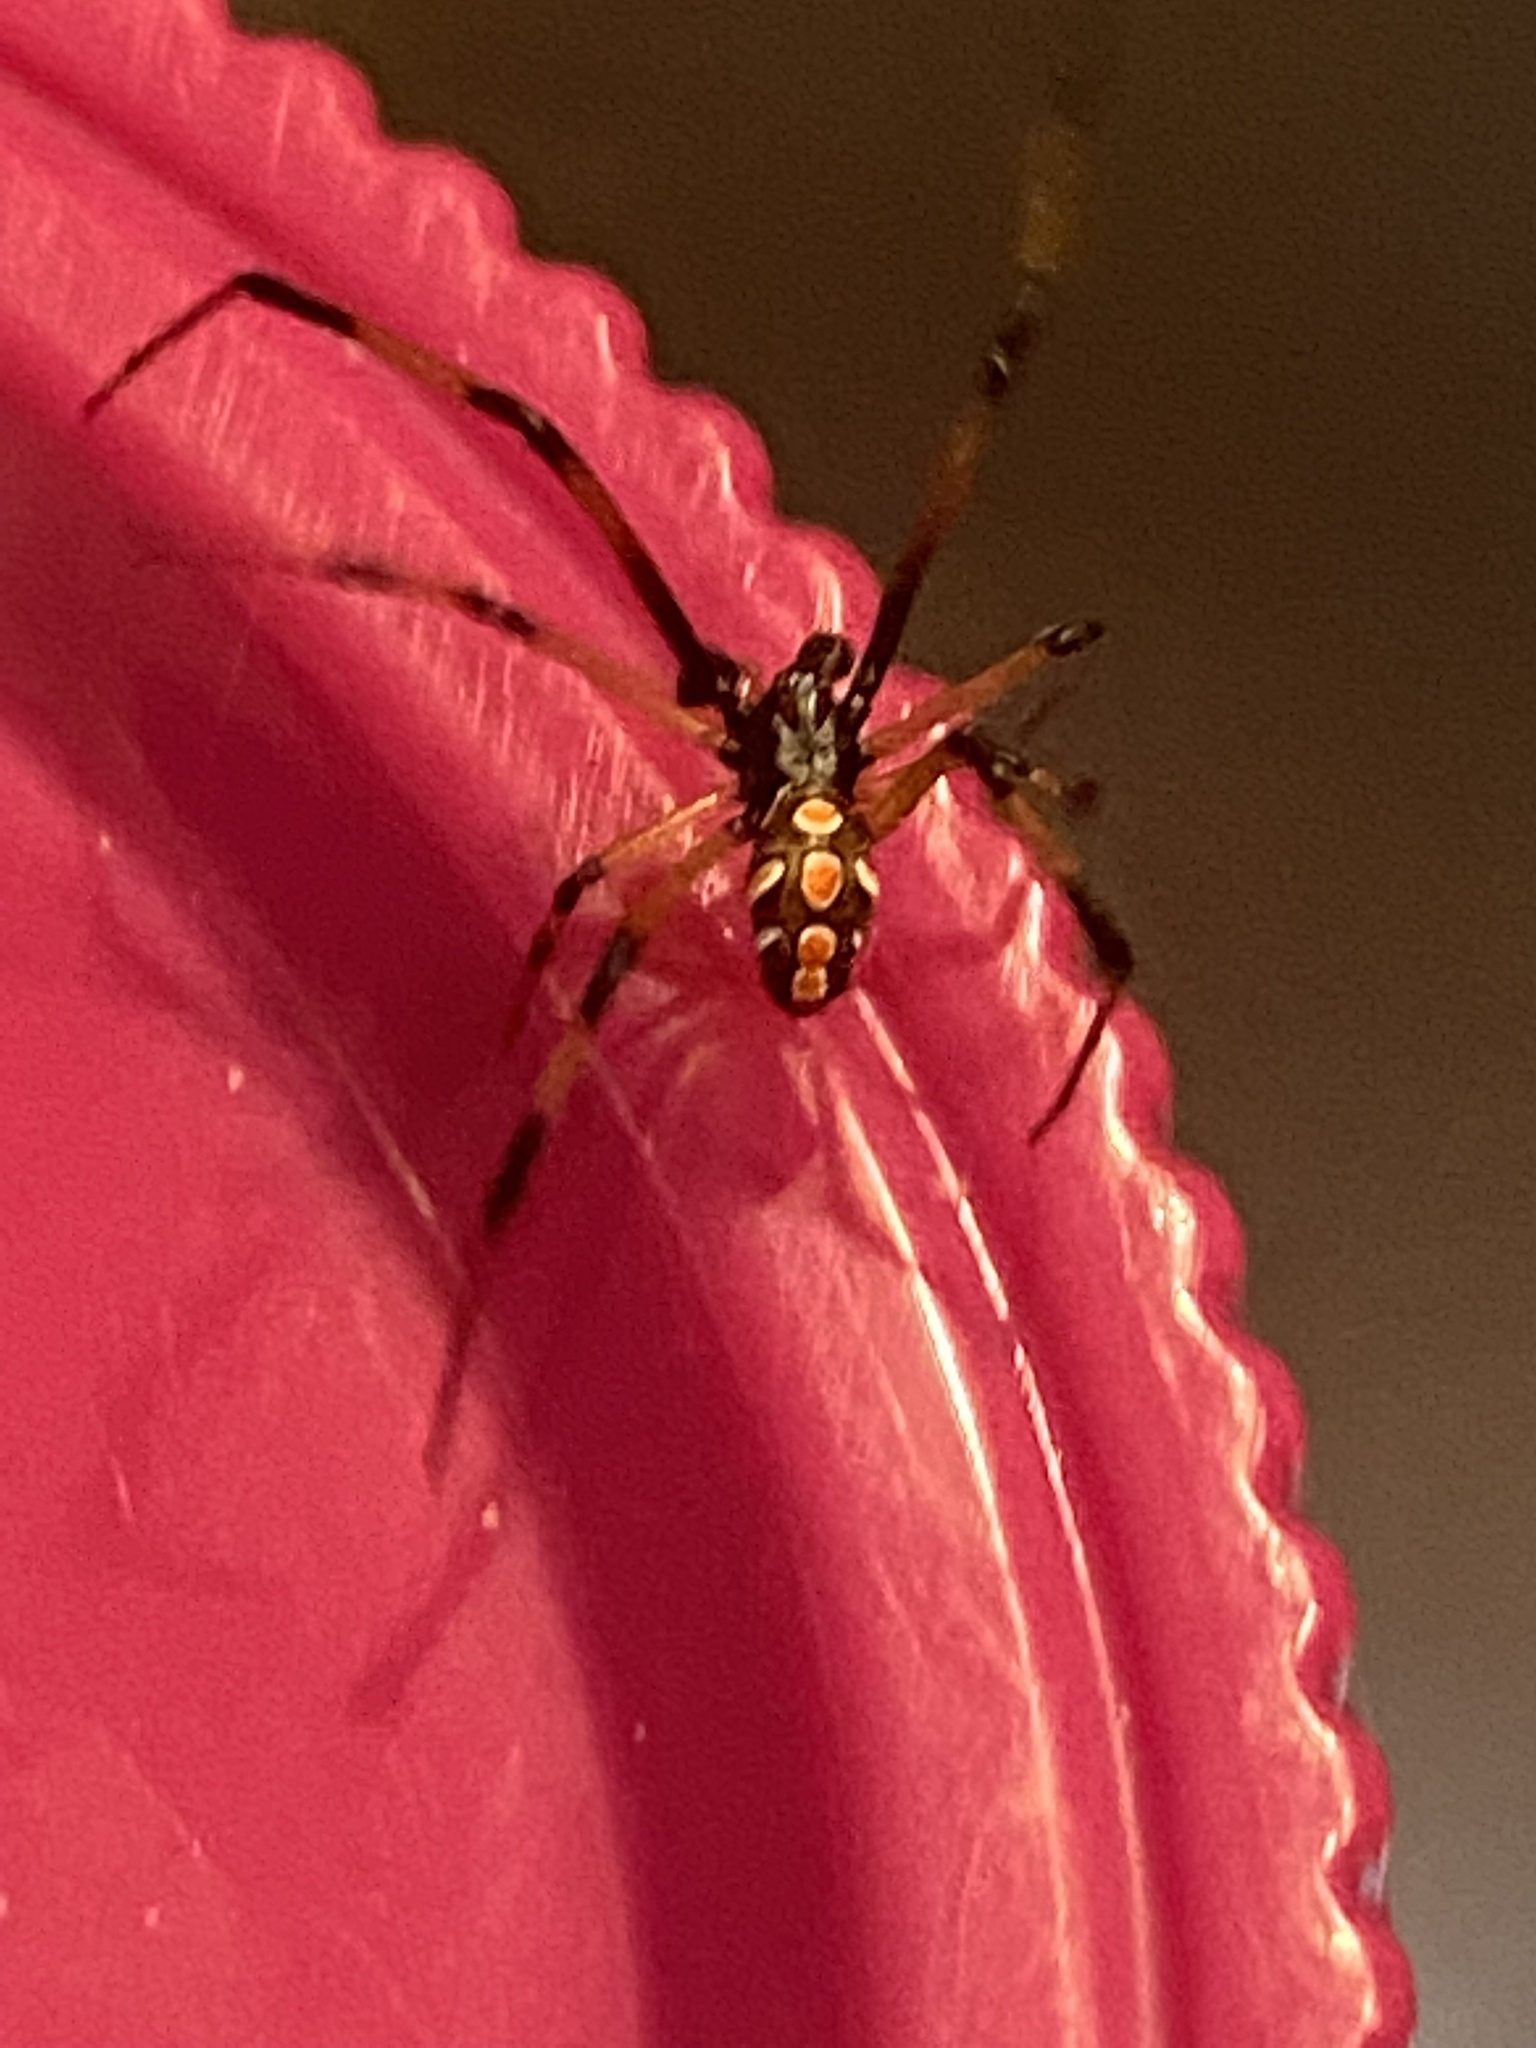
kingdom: Animalia
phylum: Arthropoda
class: Arachnida
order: Araneae
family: Theridiidae
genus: Latrodectus
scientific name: Latrodectus mactans
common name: Cobweb spiders
